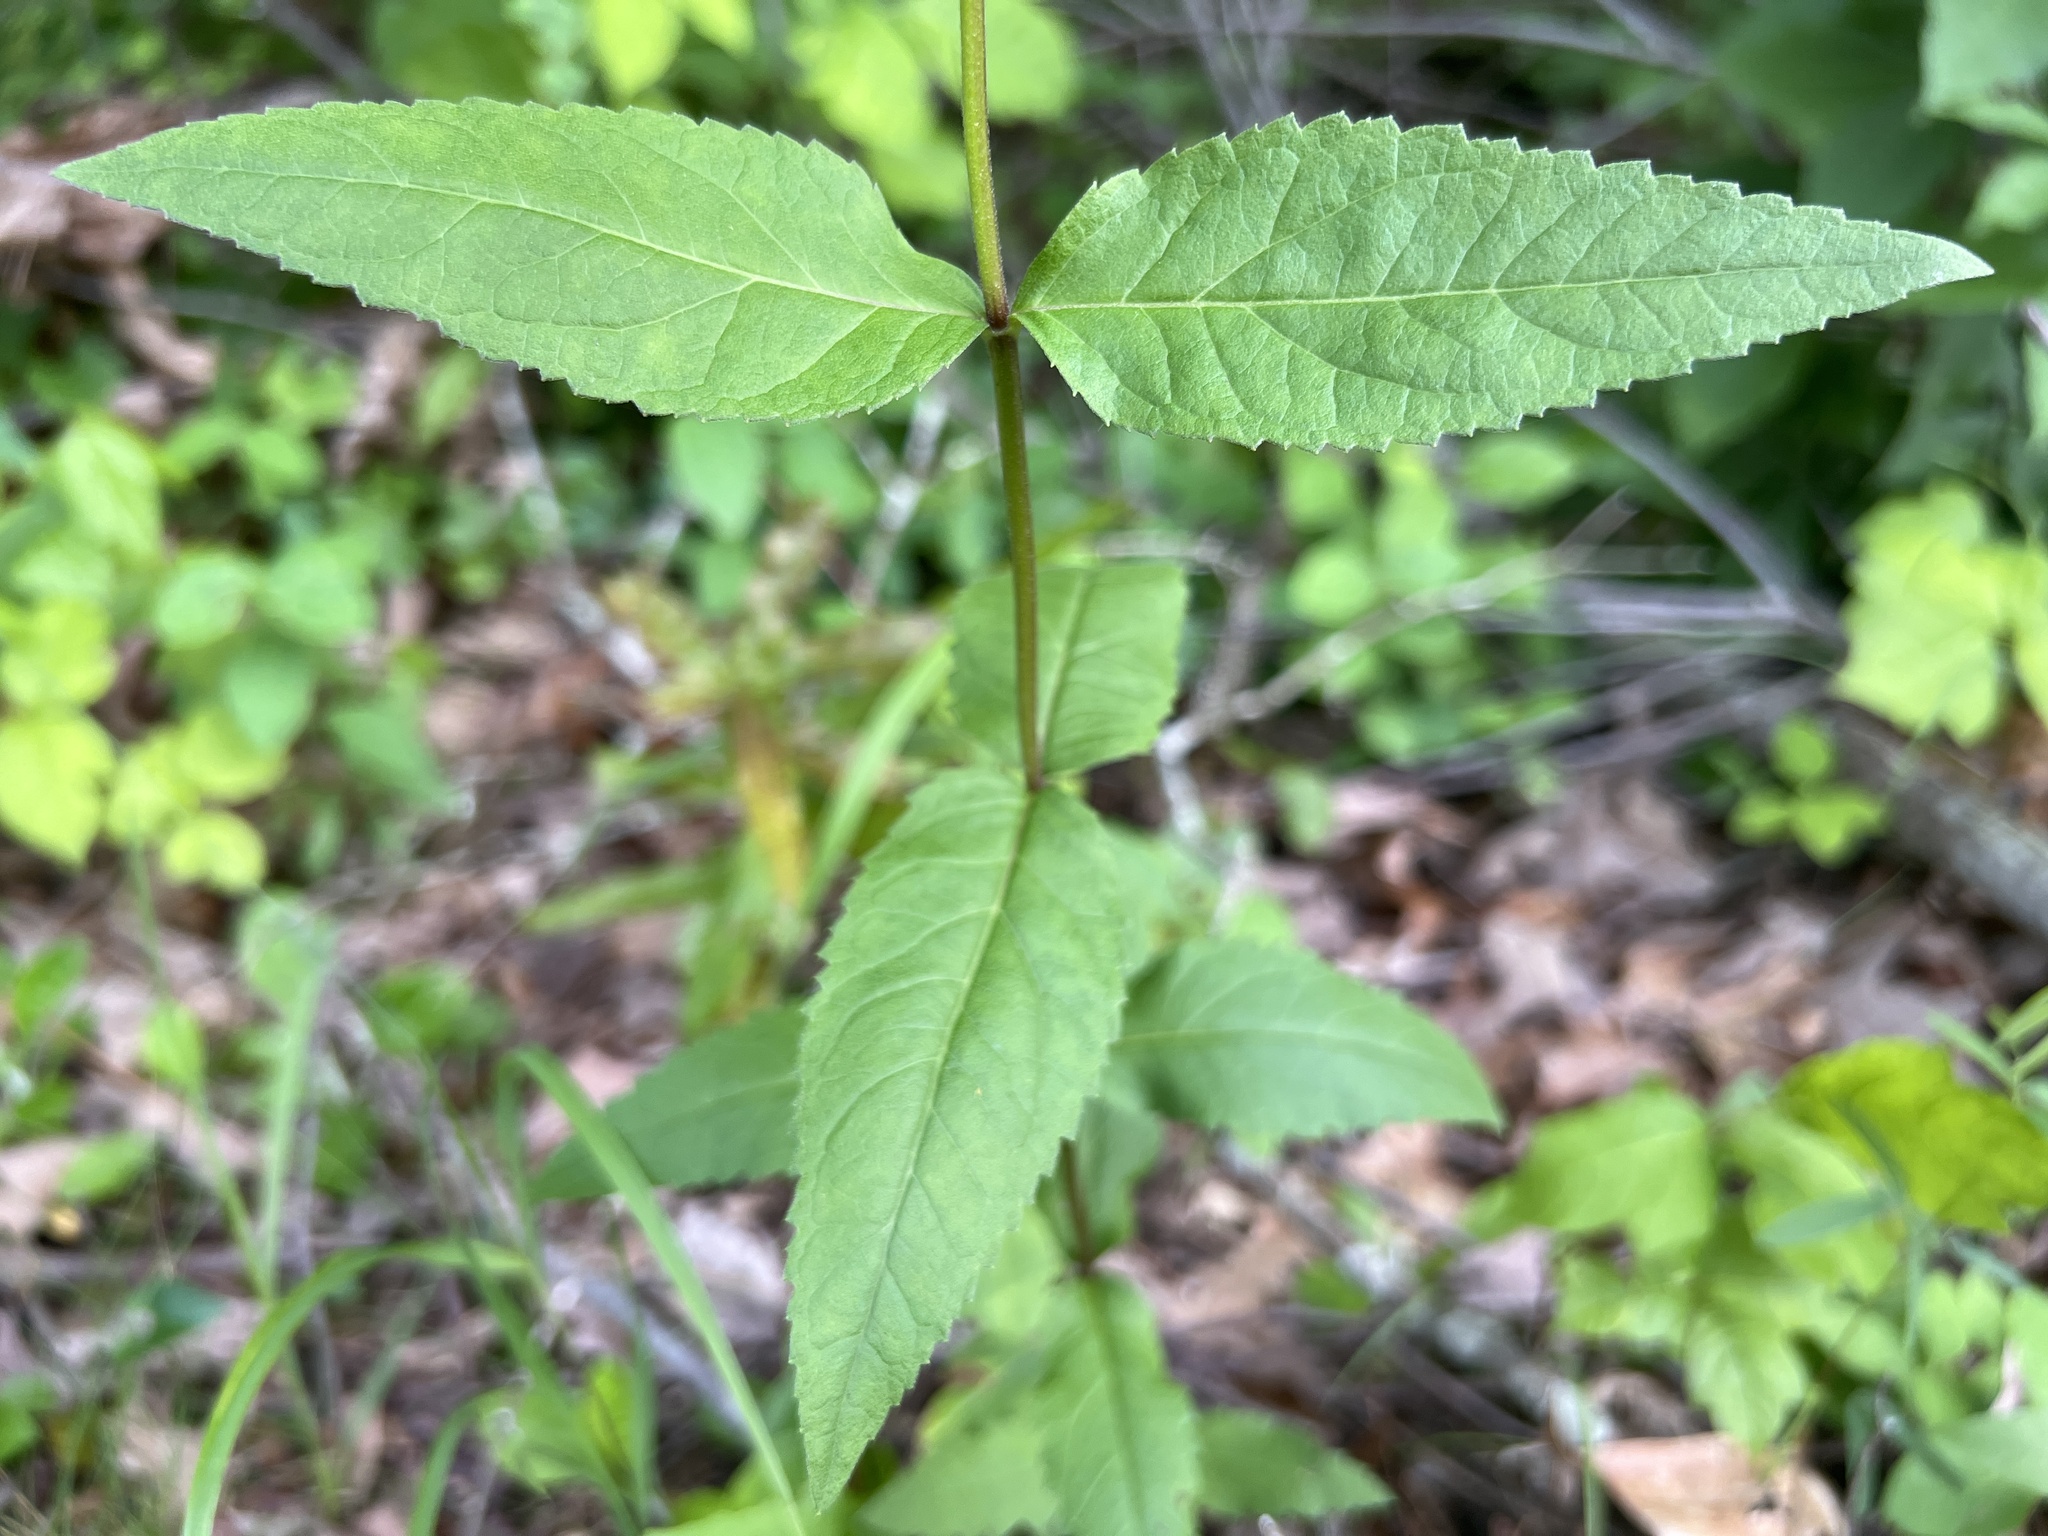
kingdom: Plantae
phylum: Tracheophyta
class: Magnoliopsida
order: Asterales
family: Asteraceae
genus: Eupatorium
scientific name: Eupatorium godfreyanum
